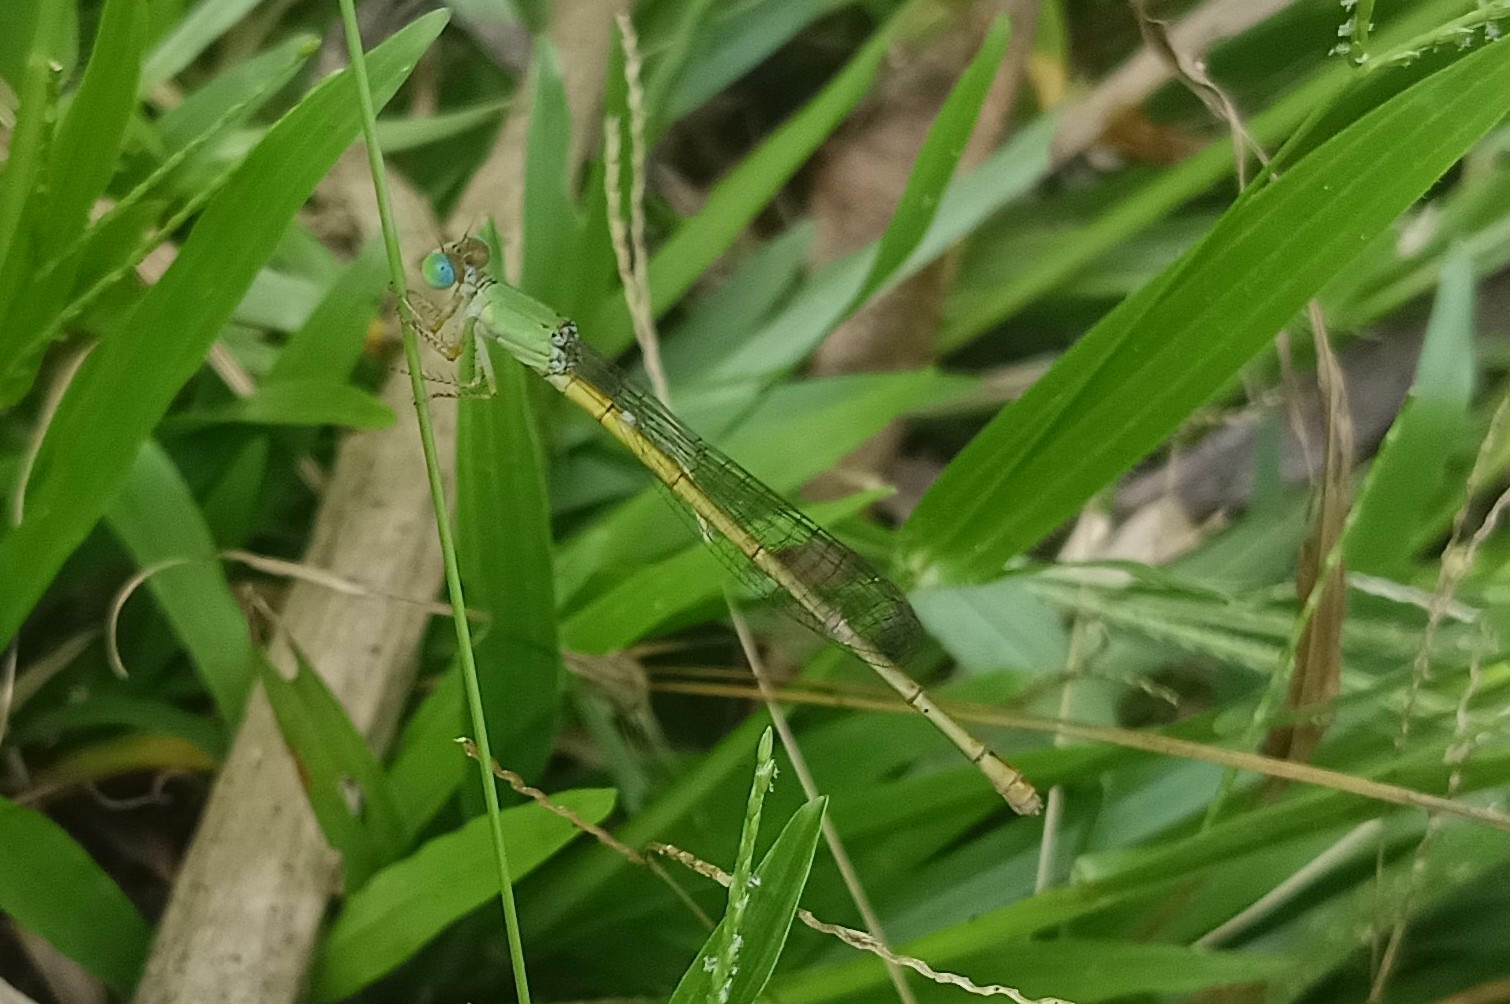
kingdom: Animalia
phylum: Arthropoda
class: Insecta
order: Odonata
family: Coenagrionidae
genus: Ceriagrion
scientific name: Ceriagrion coromandelianum
